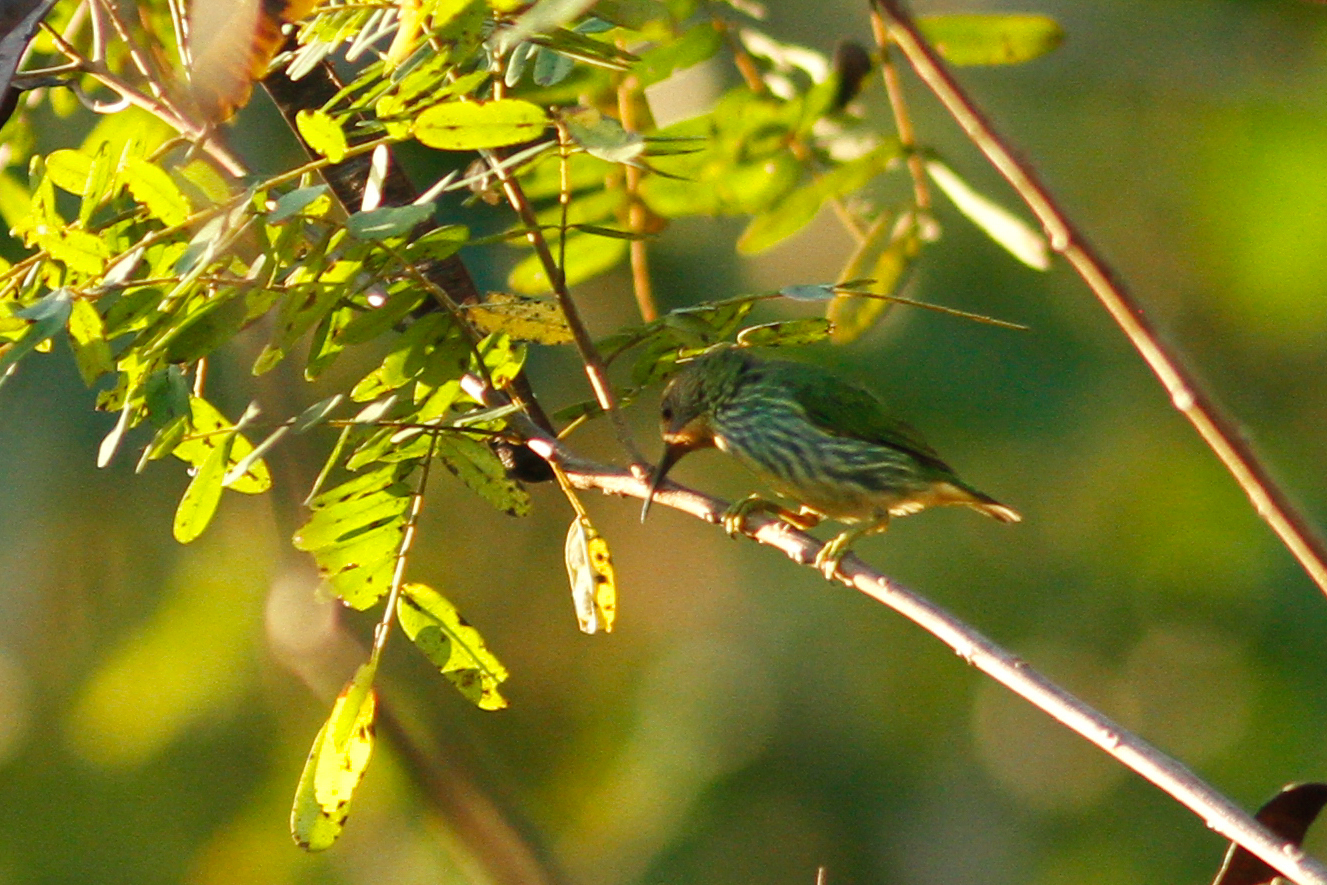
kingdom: Animalia
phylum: Chordata
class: Aves
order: Passeriformes
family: Thraupidae
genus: Cyanerpes
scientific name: Cyanerpes caeruleus
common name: Purple honeycreeper
